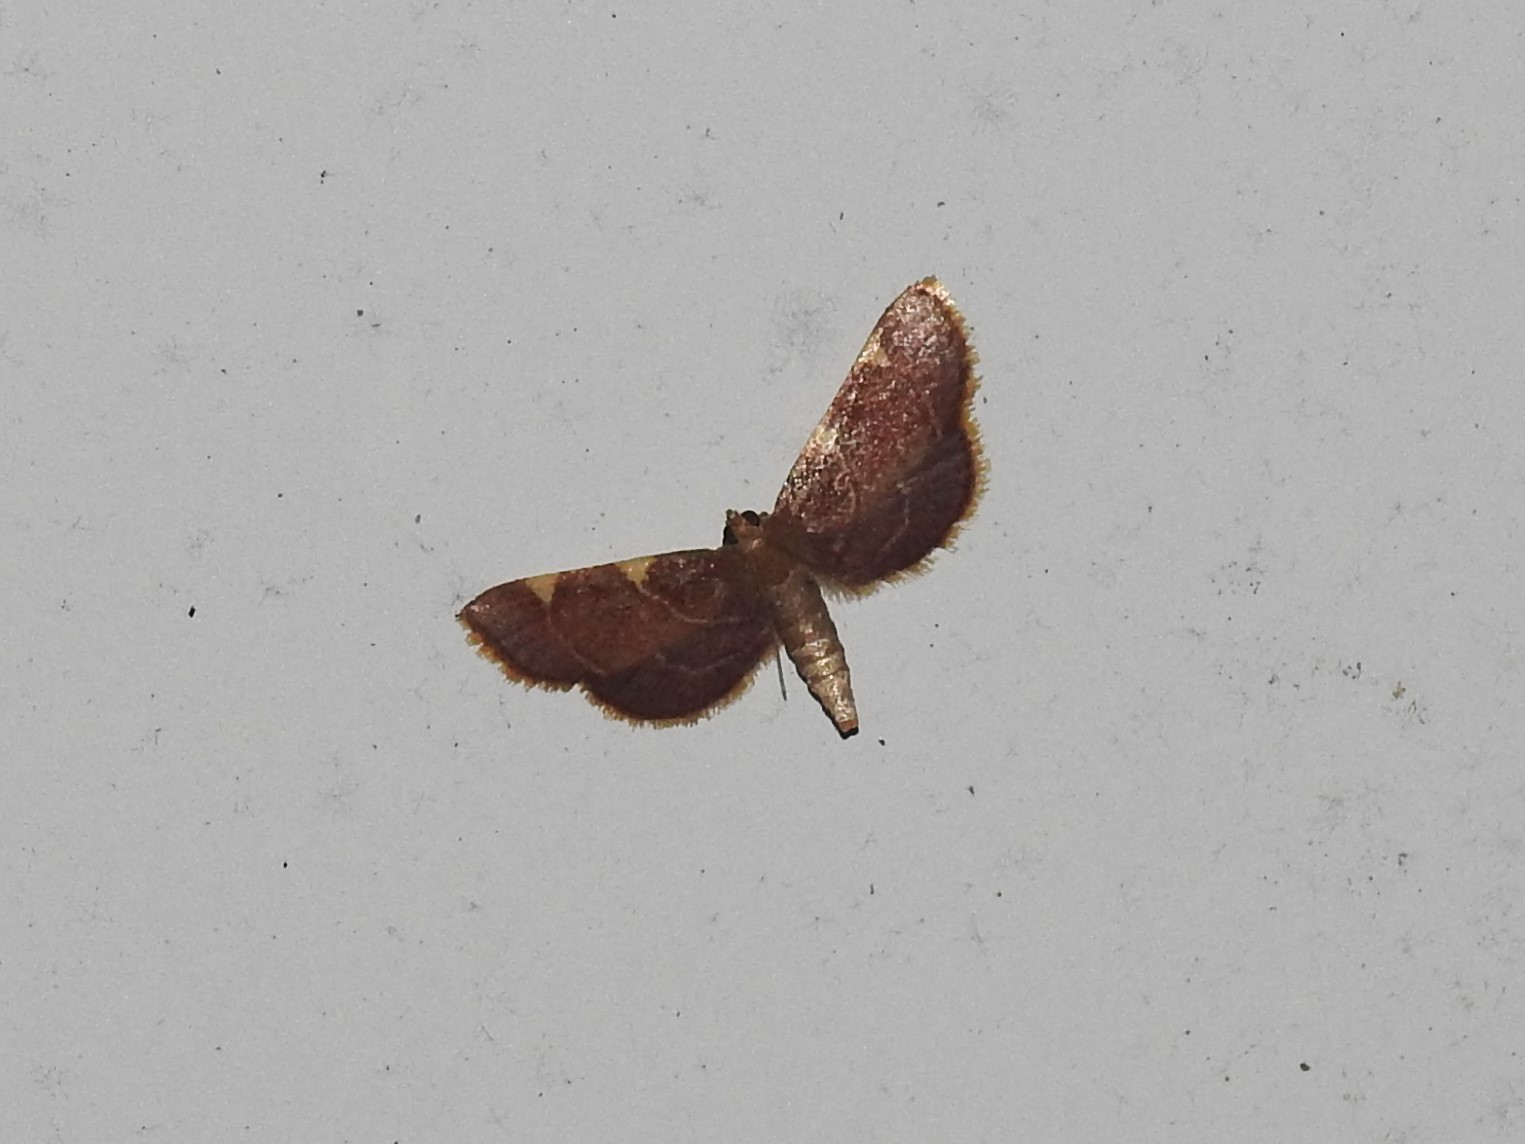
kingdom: Animalia
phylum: Arthropoda
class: Insecta
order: Lepidoptera
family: Pyralidae
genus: Hypsopygia
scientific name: Hypsopygia olinalis
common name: Yellow-fringed dolichomia moth
